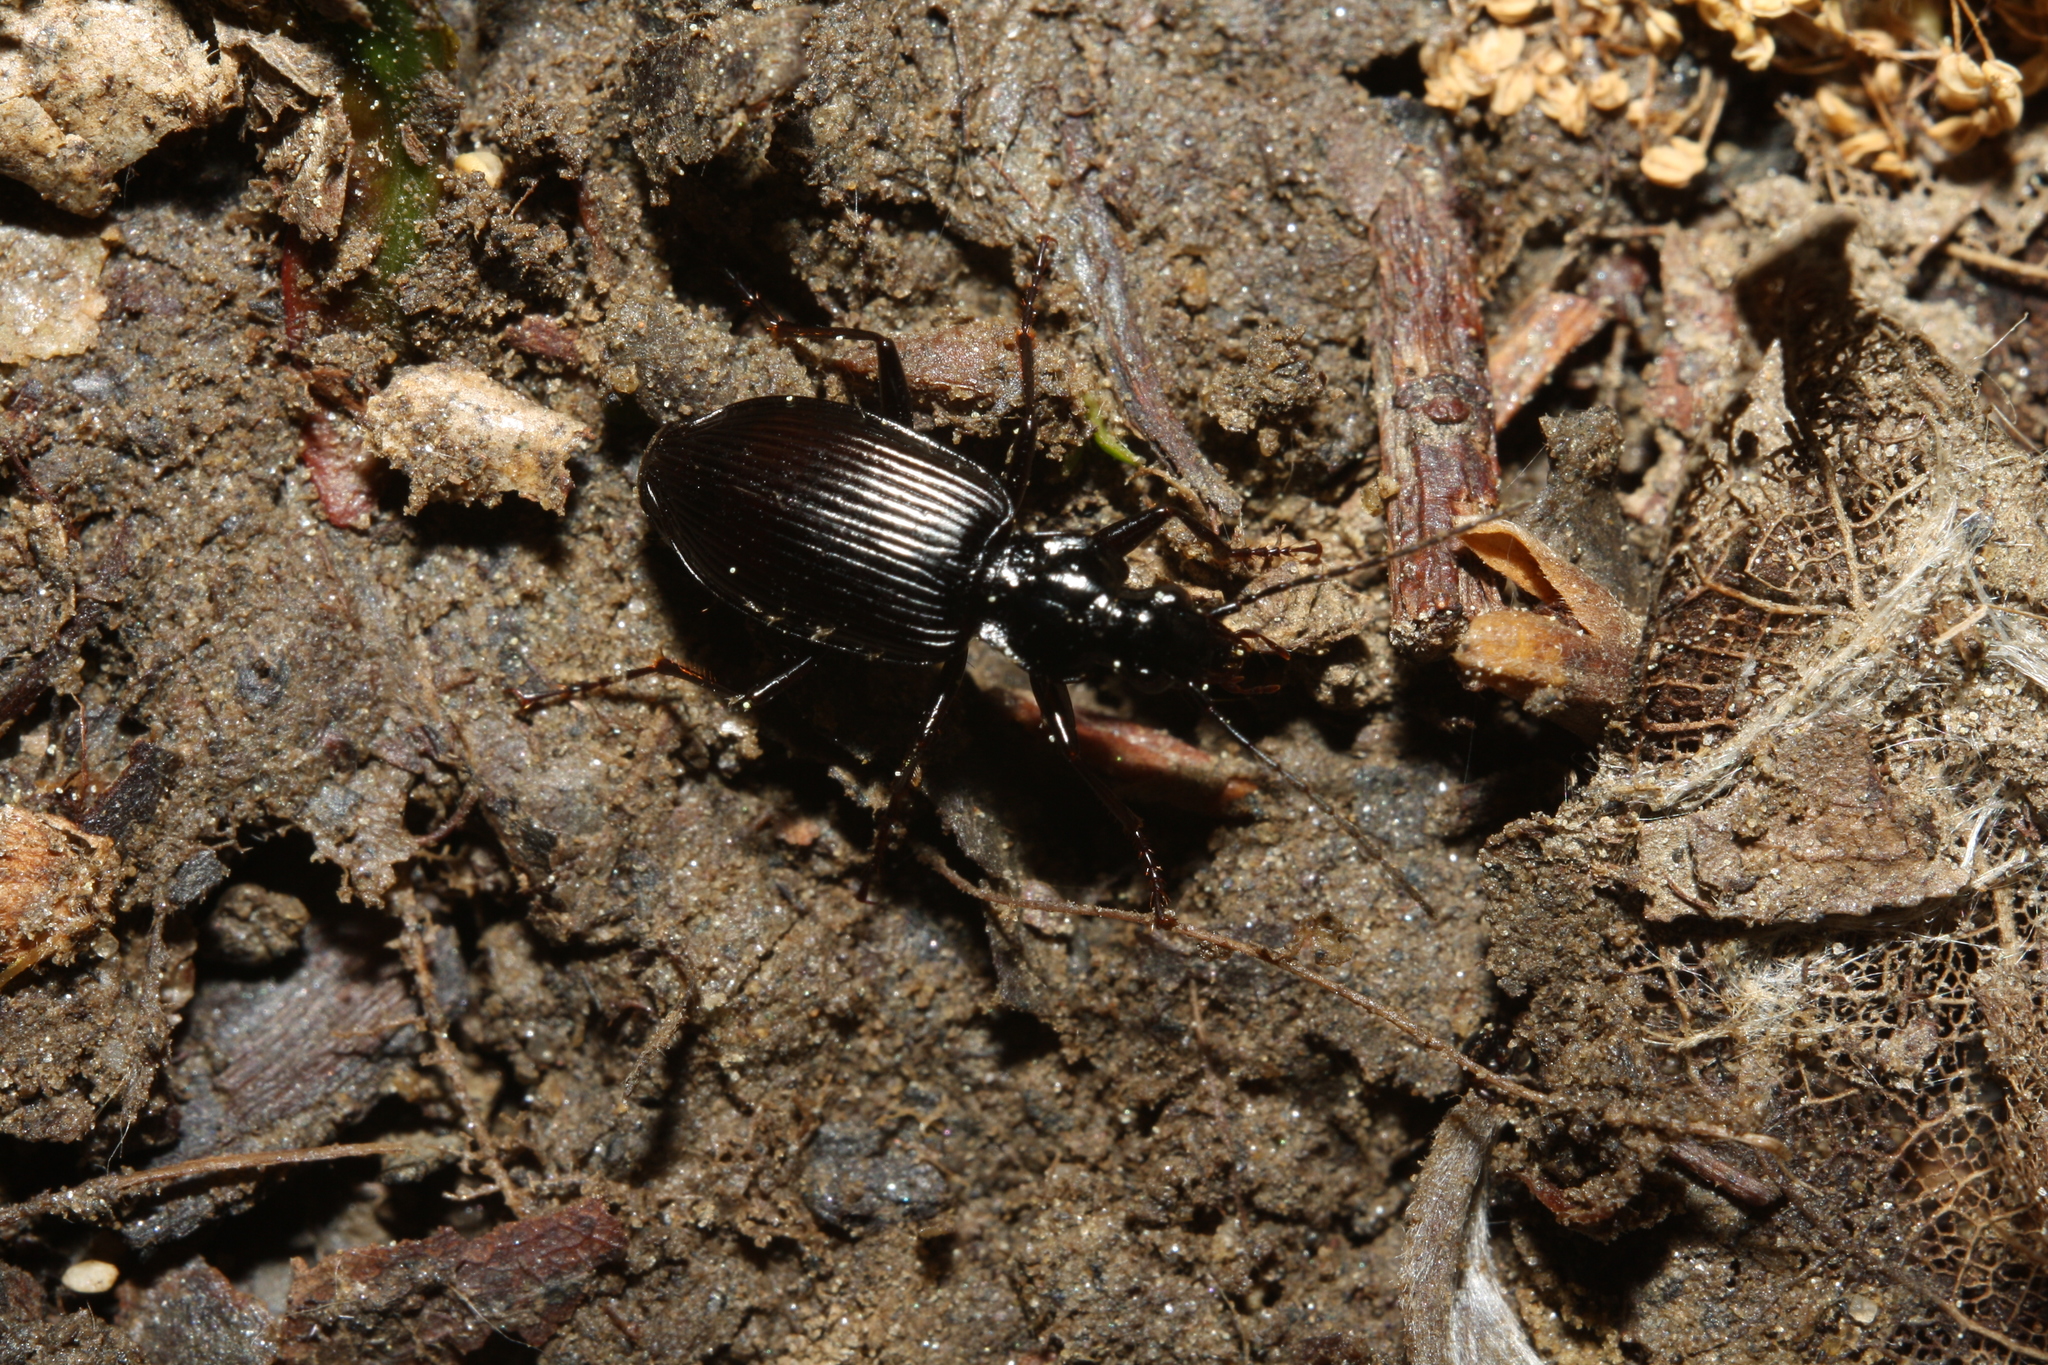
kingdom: Animalia
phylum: Arthropoda
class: Insecta
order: Coleoptera
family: Carabidae
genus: Platynus
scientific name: Platynus assimilis
